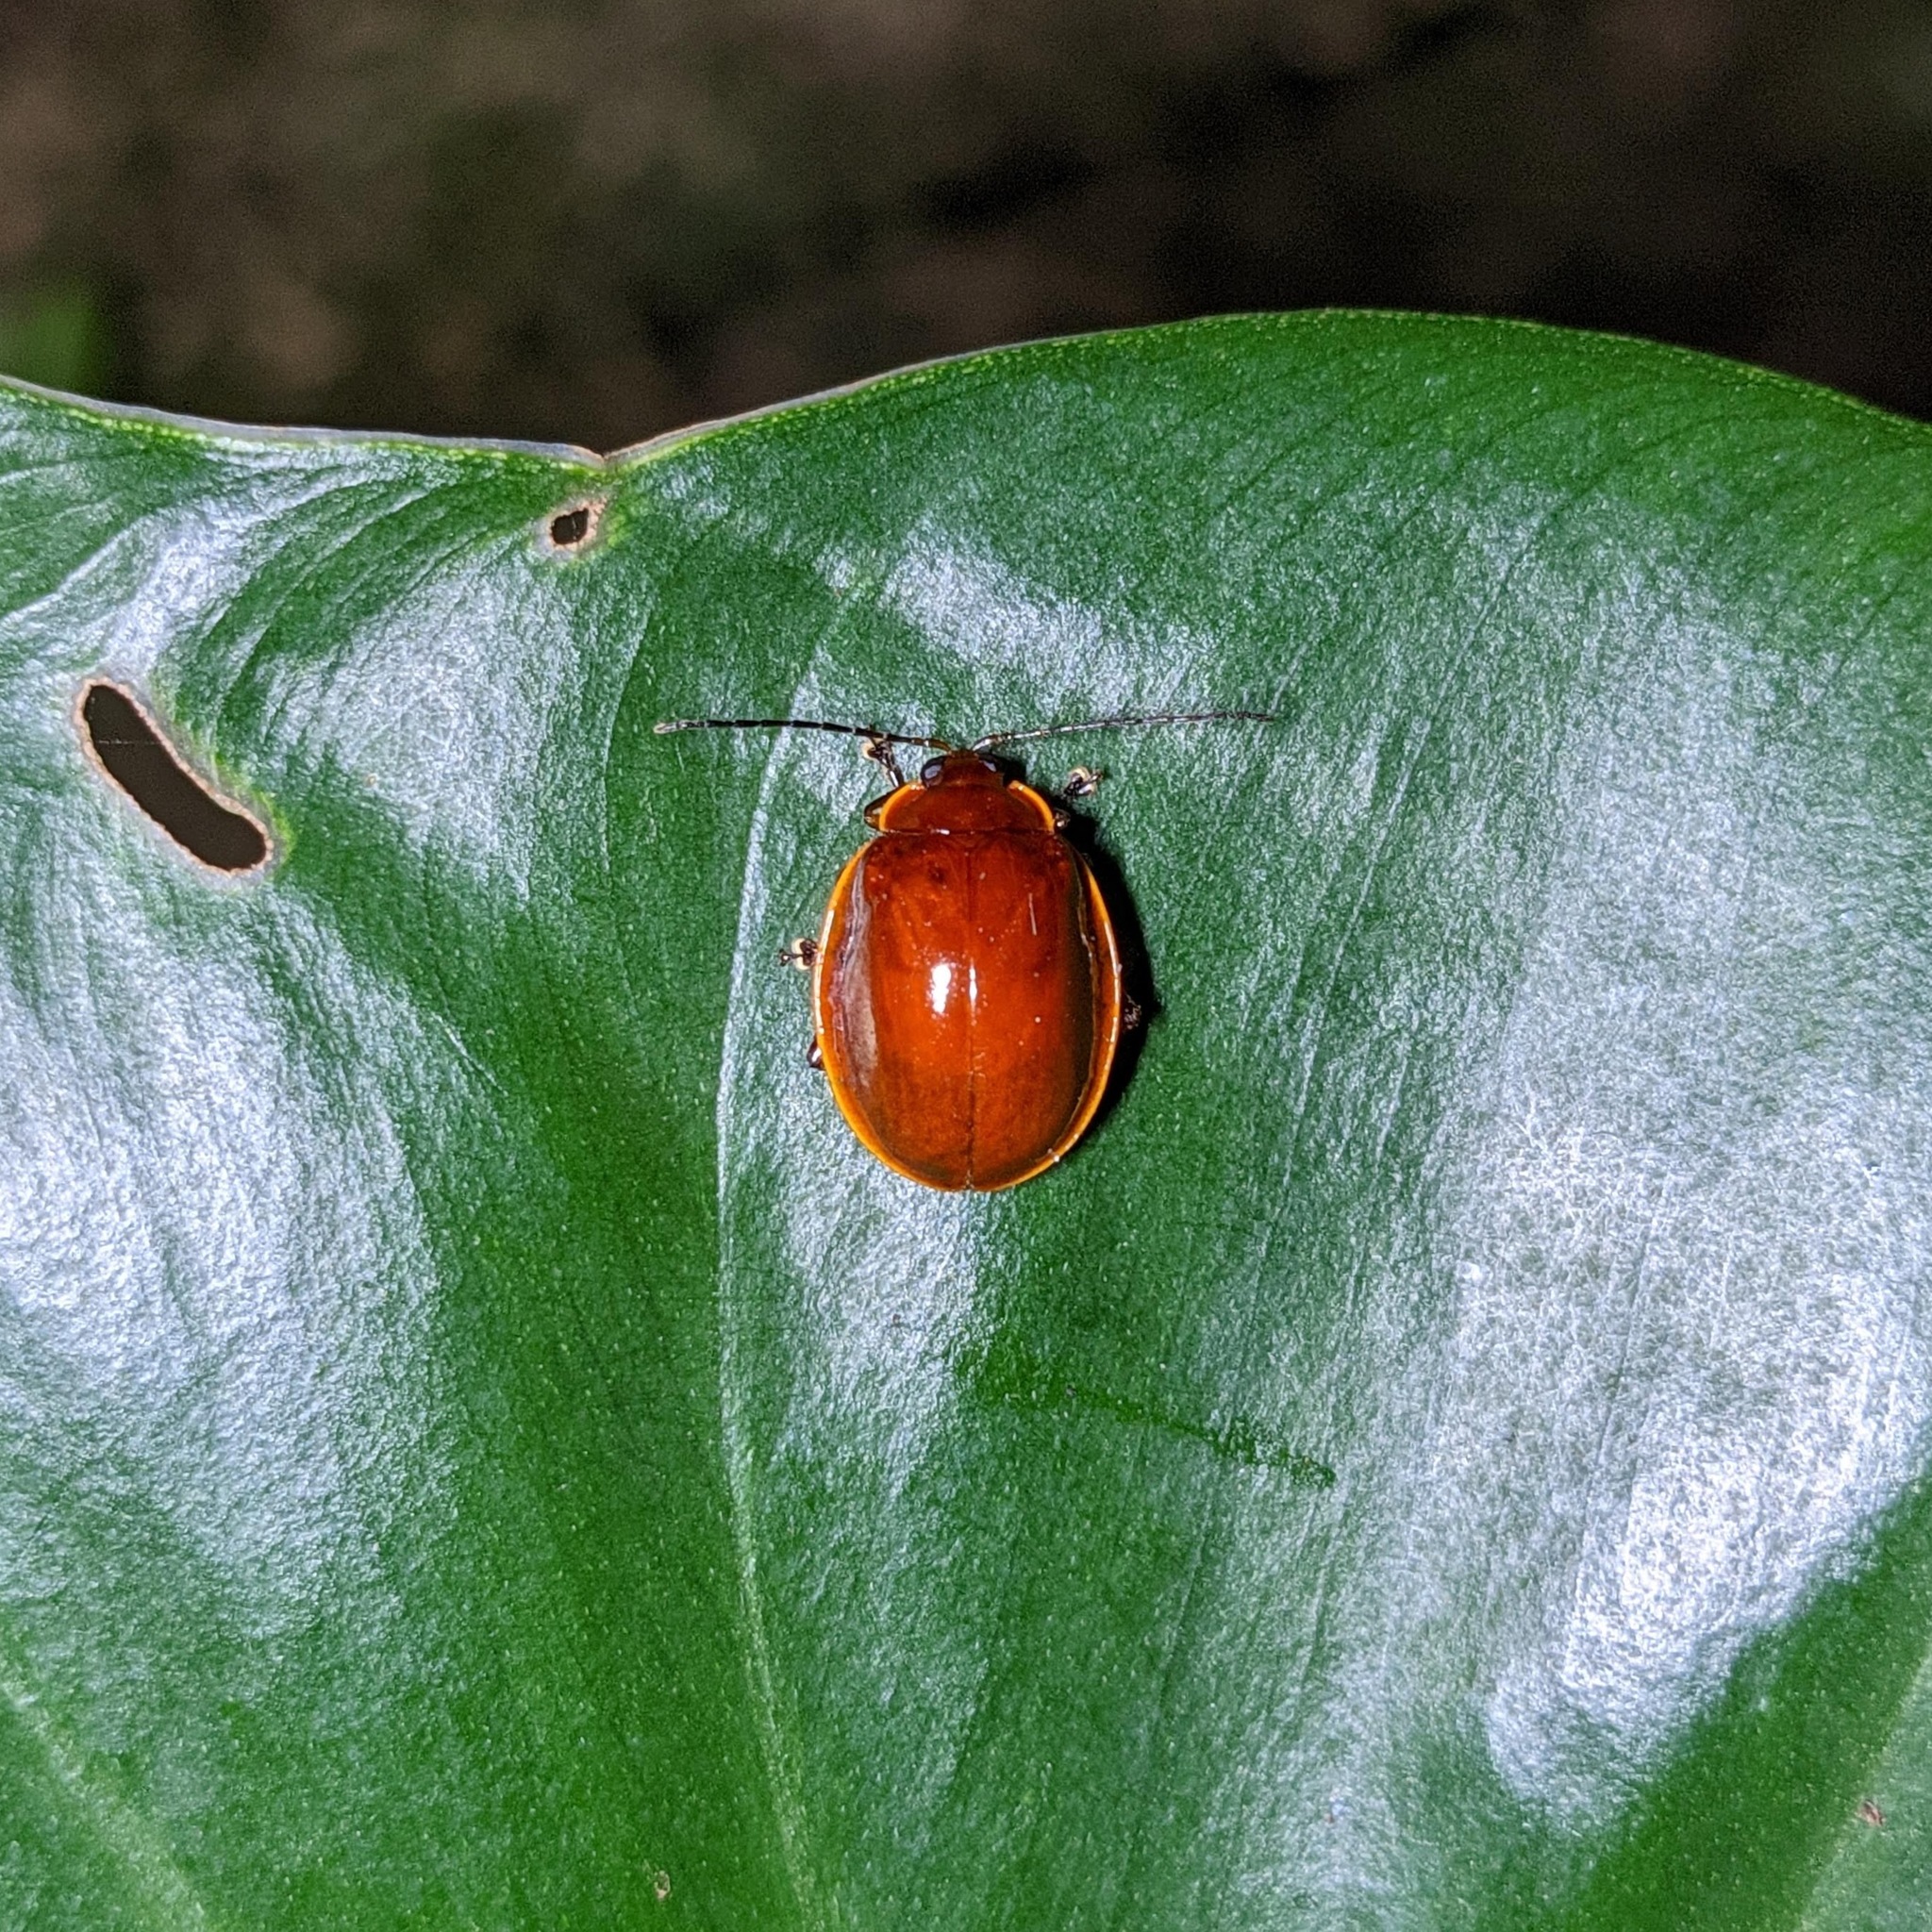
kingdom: Animalia
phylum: Arthropoda
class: Insecta
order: Coleoptera
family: Chrysomelidae
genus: Alagoasa
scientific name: Alagoasa aurora
